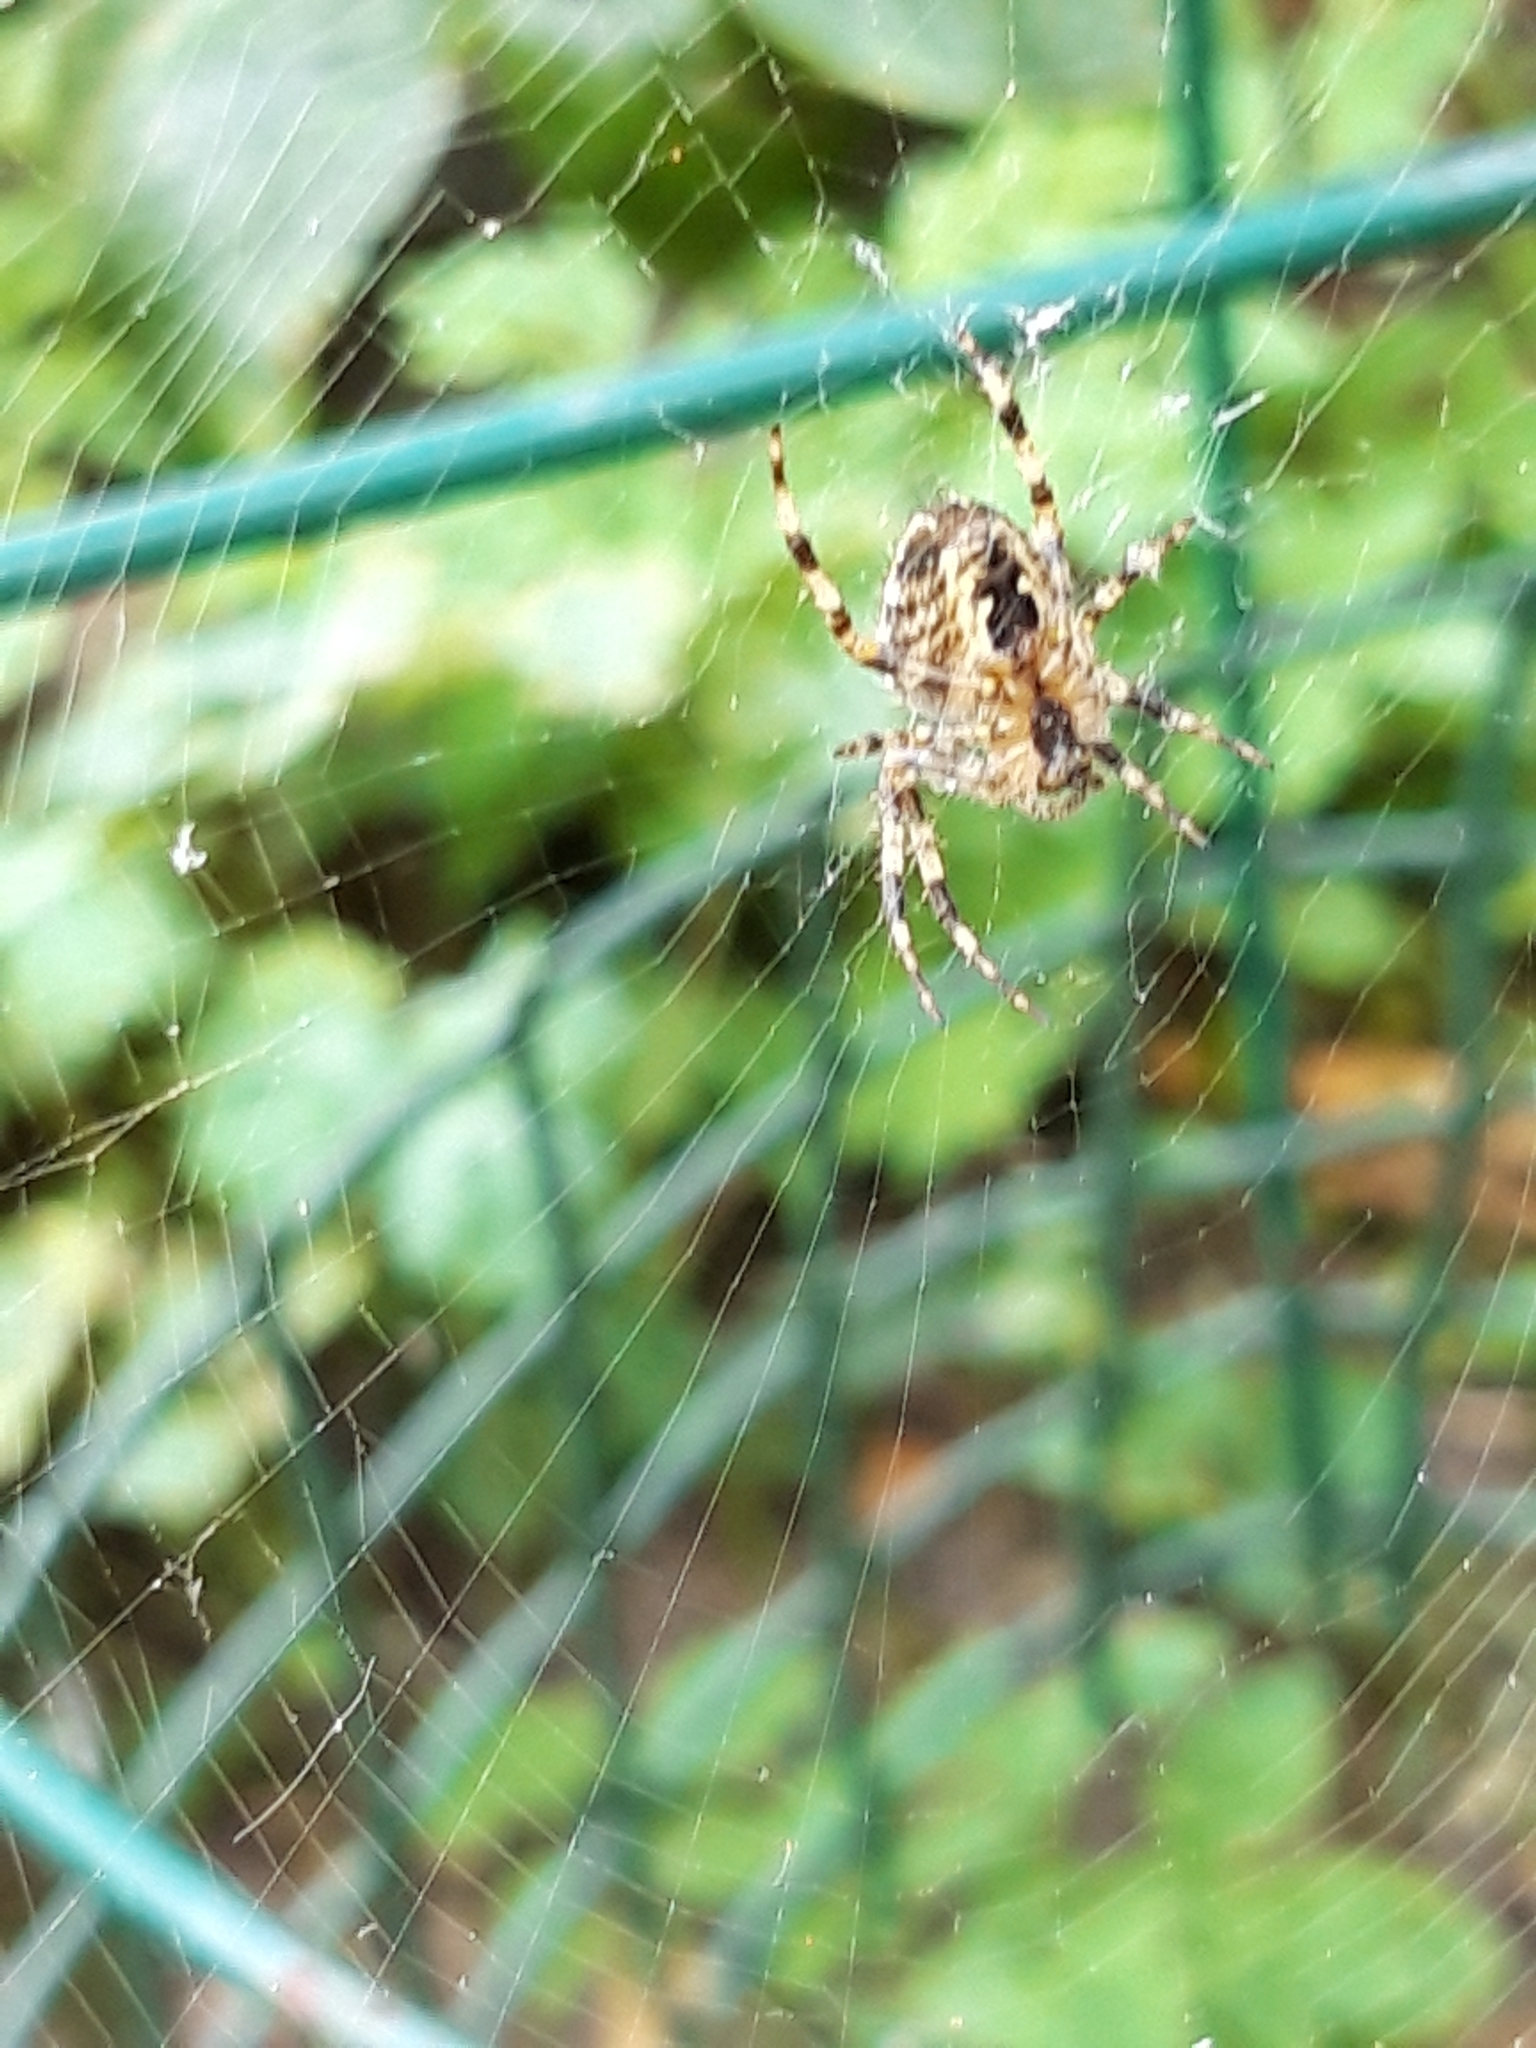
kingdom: Animalia
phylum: Arthropoda
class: Arachnida
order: Araneae
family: Araneidae
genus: Araneus
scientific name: Araneus diadematus
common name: Cross orbweaver
